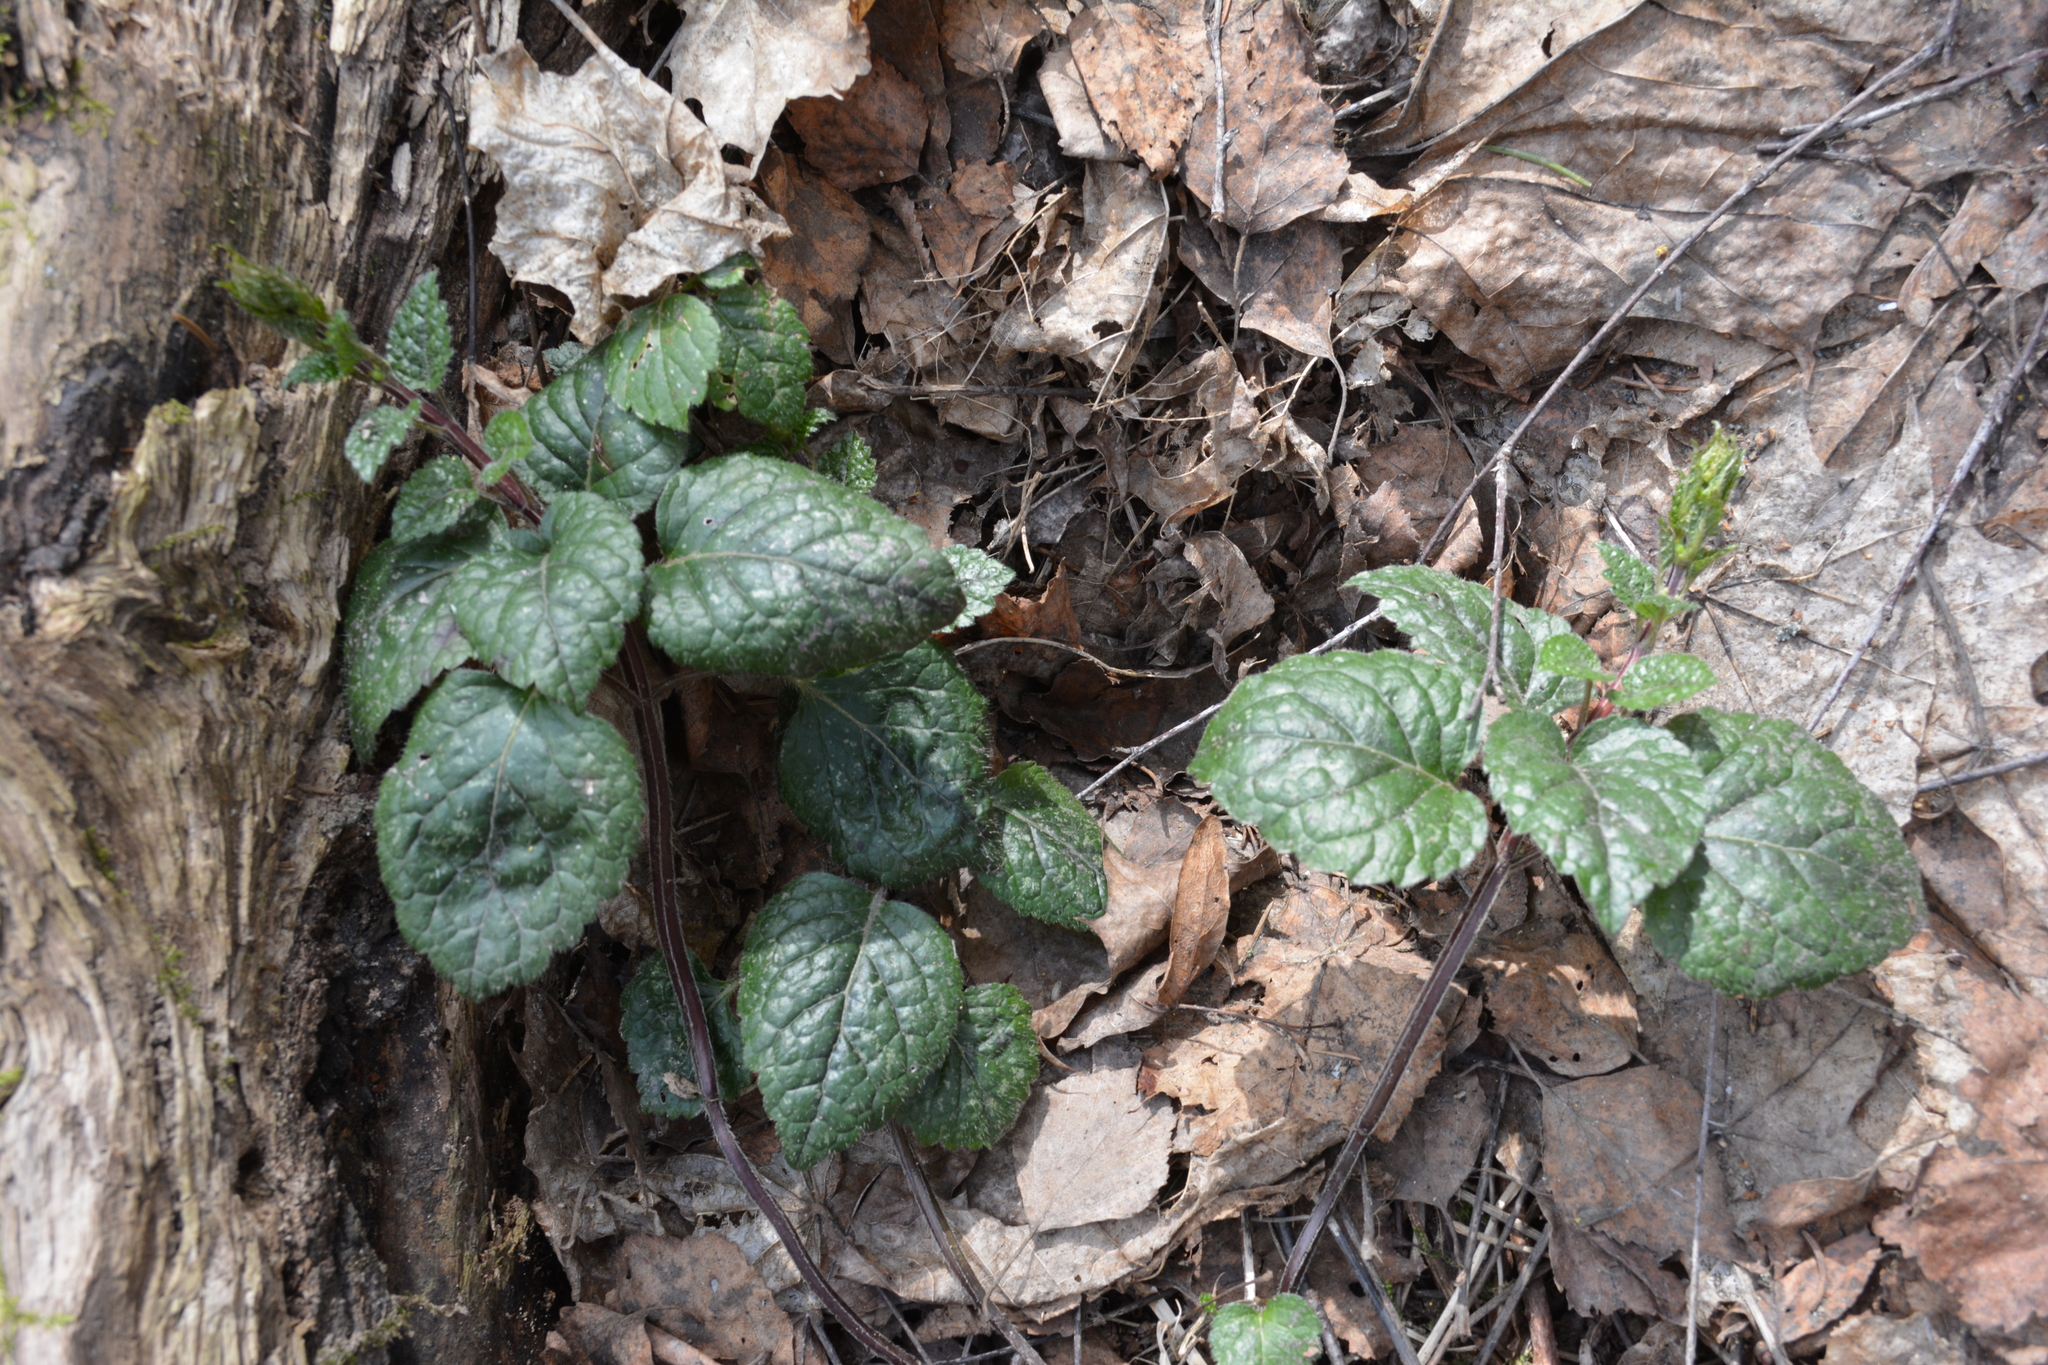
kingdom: Plantae
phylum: Tracheophyta
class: Magnoliopsida
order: Lamiales
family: Lamiaceae
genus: Lamium
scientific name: Lamium galeobdolon
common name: Yellow archangel
